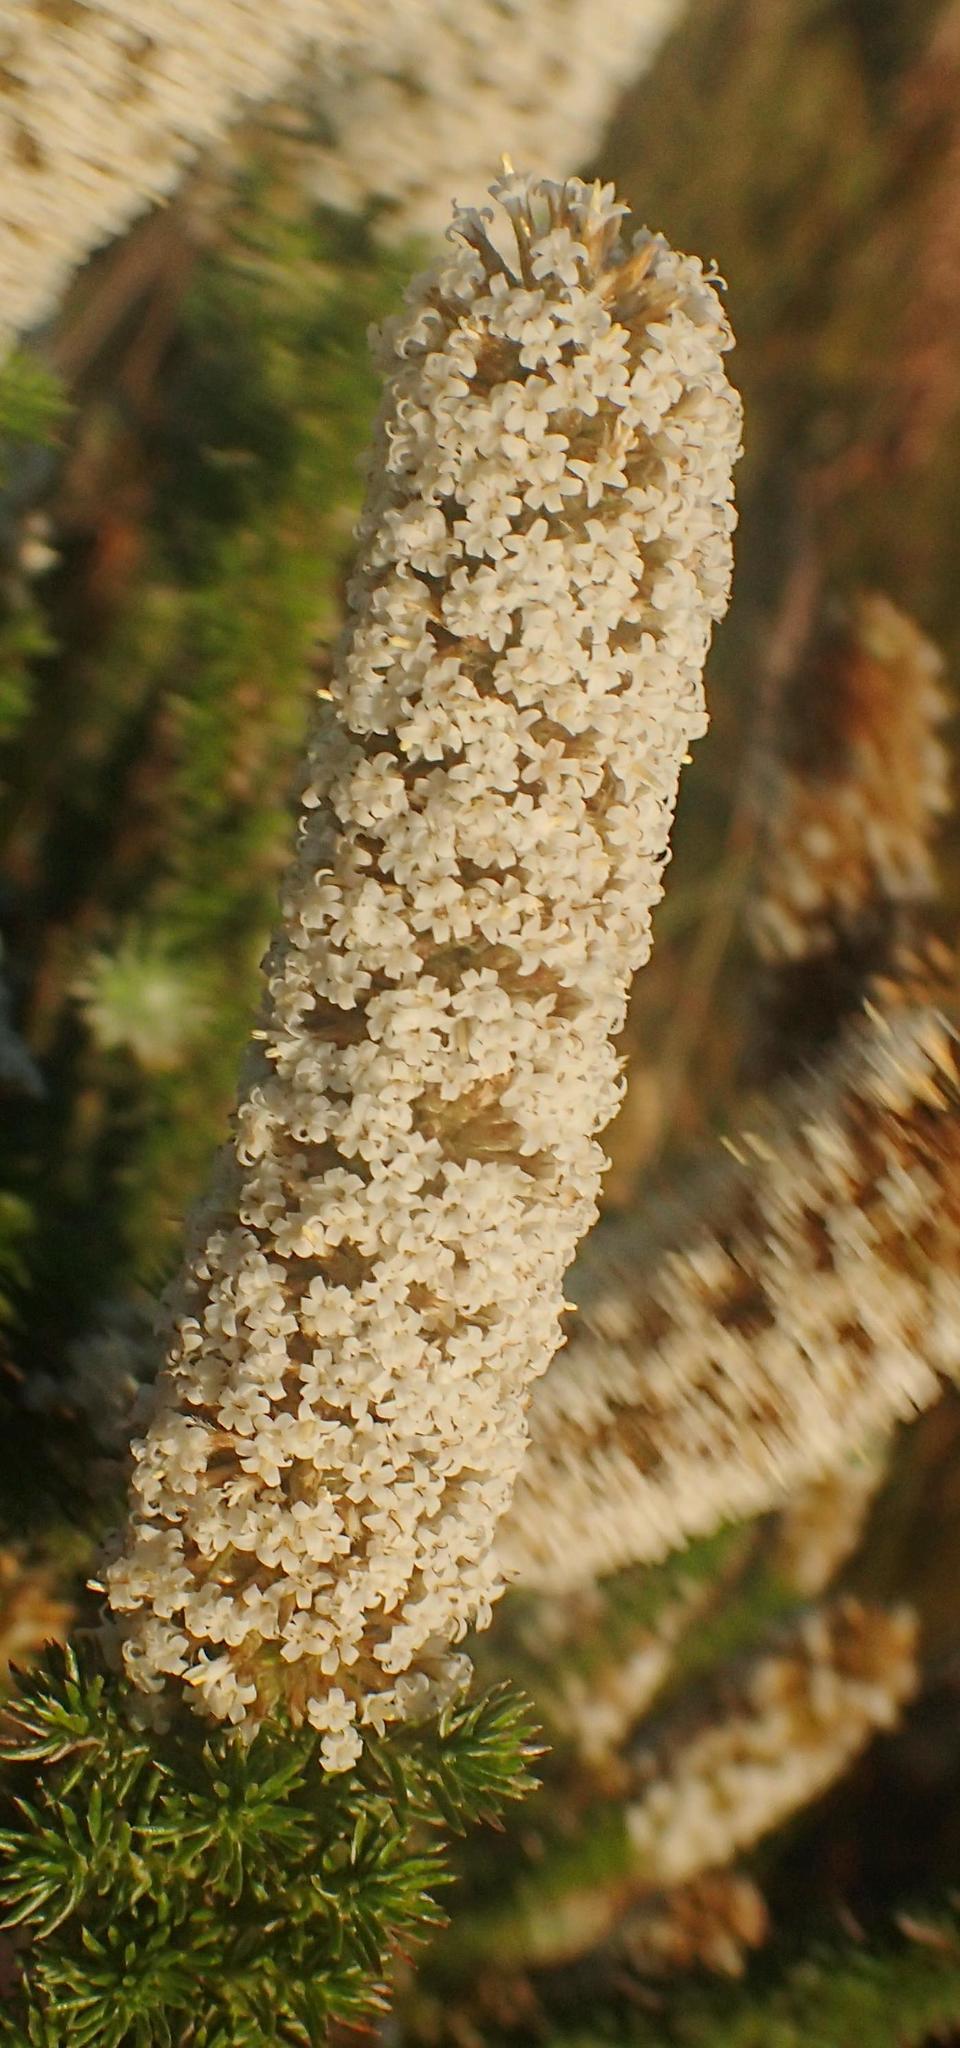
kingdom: Plantae
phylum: Tracheophyta
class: Magnoliopsida
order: Asterales
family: Asteraceae
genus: Stoebe
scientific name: Stoebe alopecuroides
